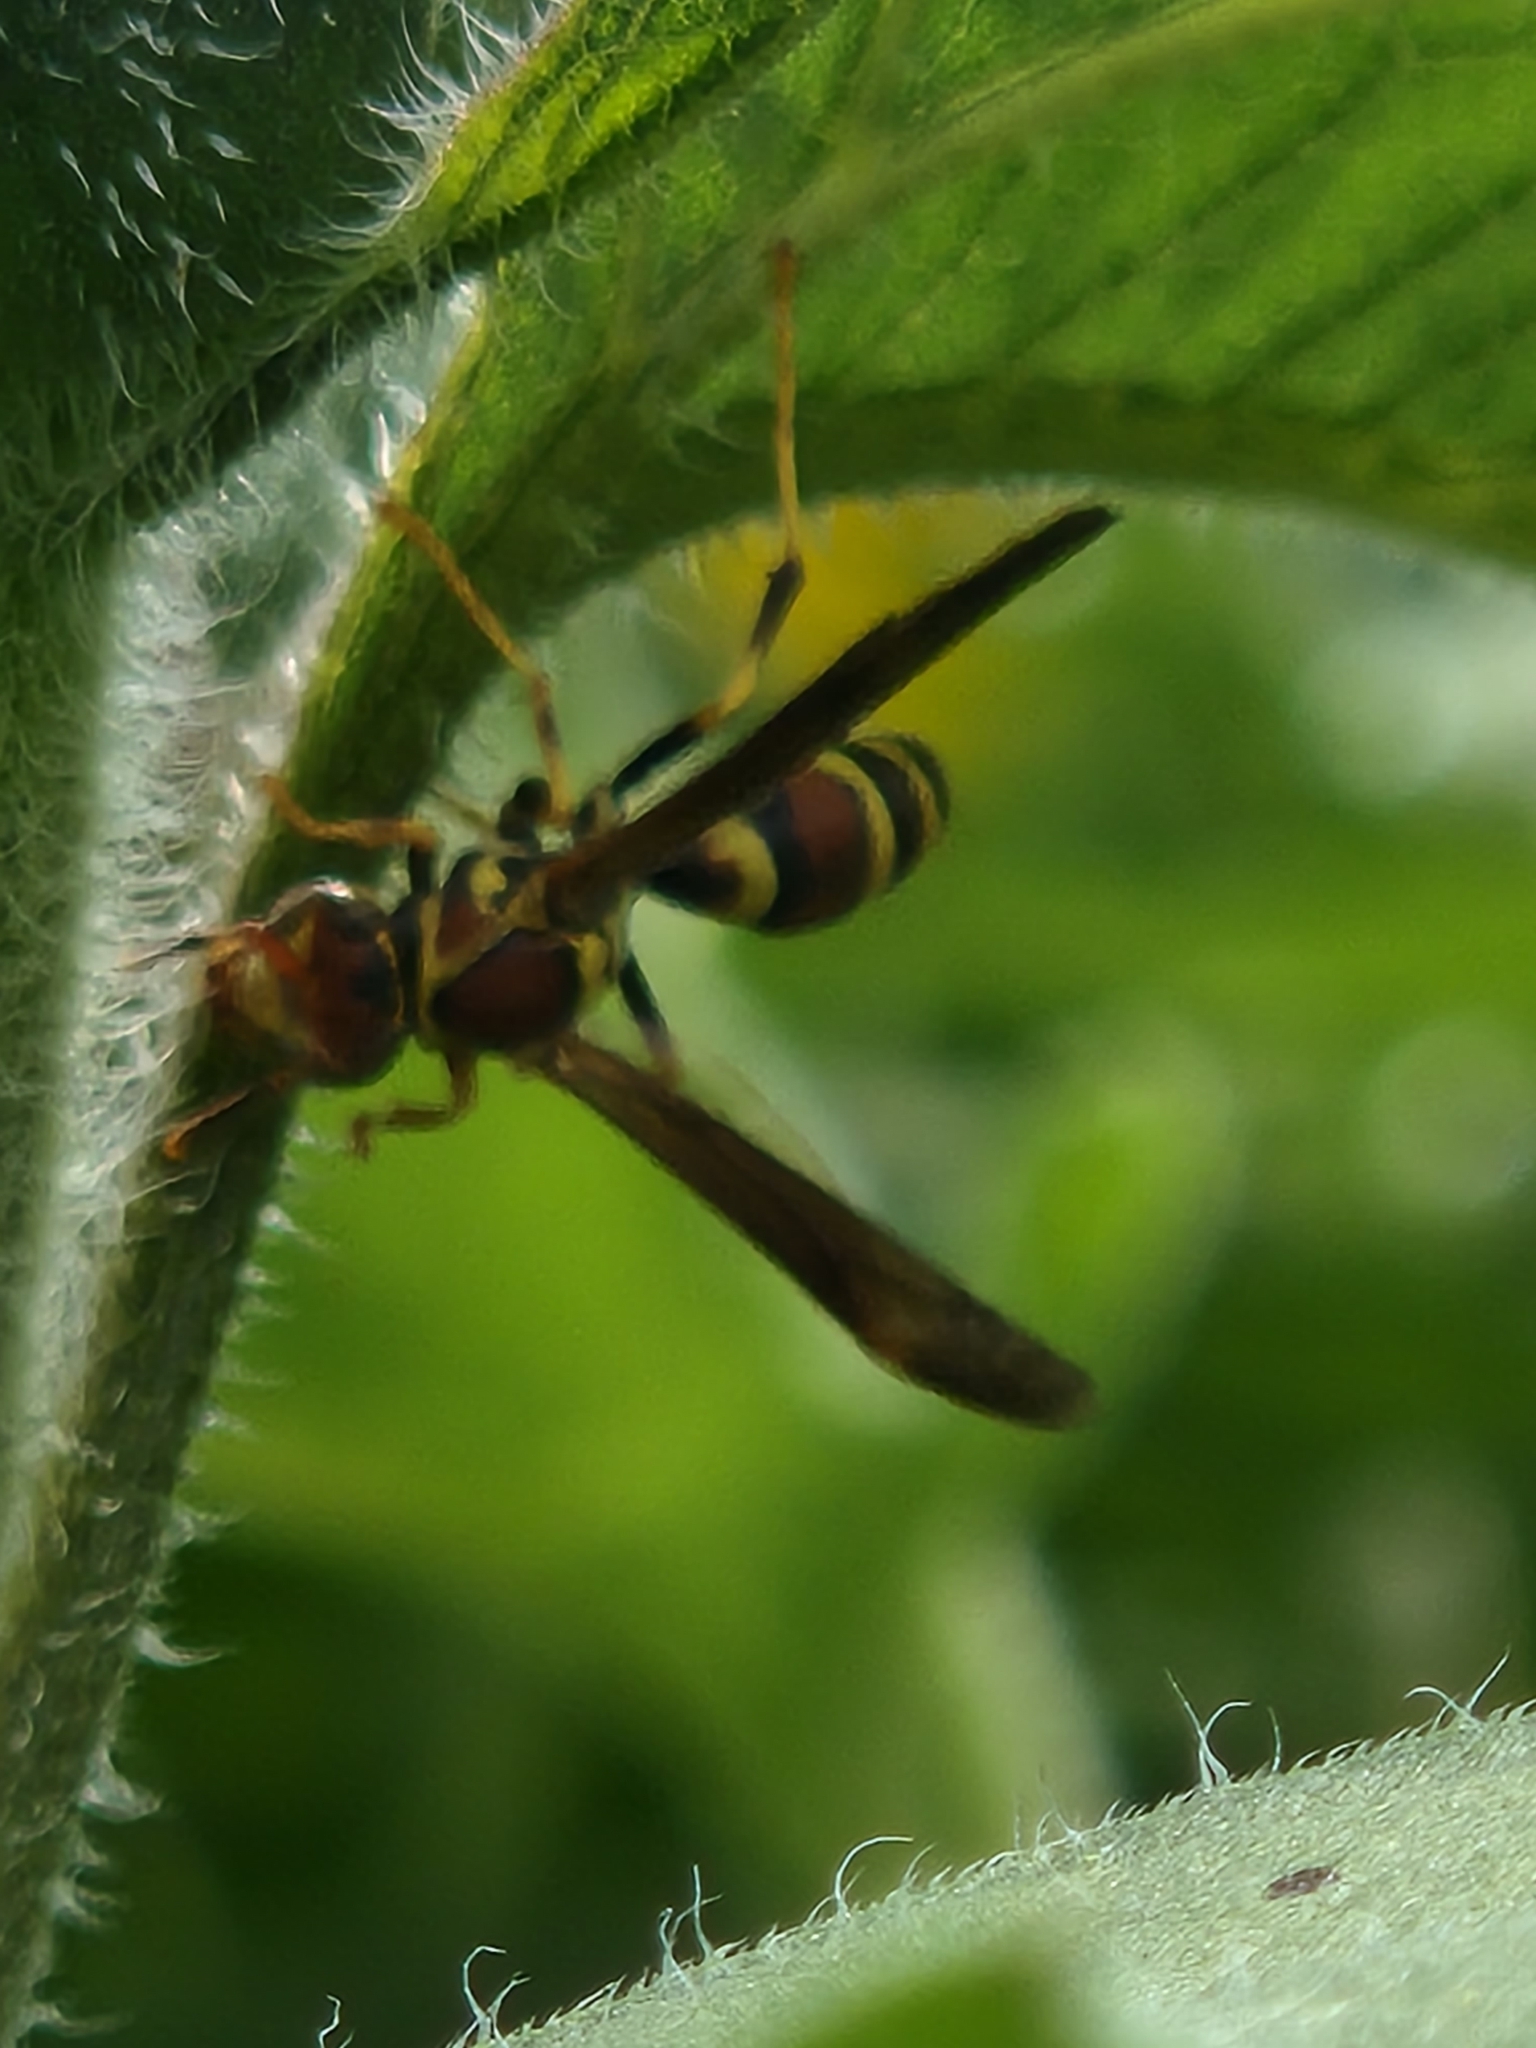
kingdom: Animalia
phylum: Arthropoda
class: Insecta
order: Hymenoptera
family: Eumenidae
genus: Polistes
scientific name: Polistes exclamans
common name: Paper wasp
